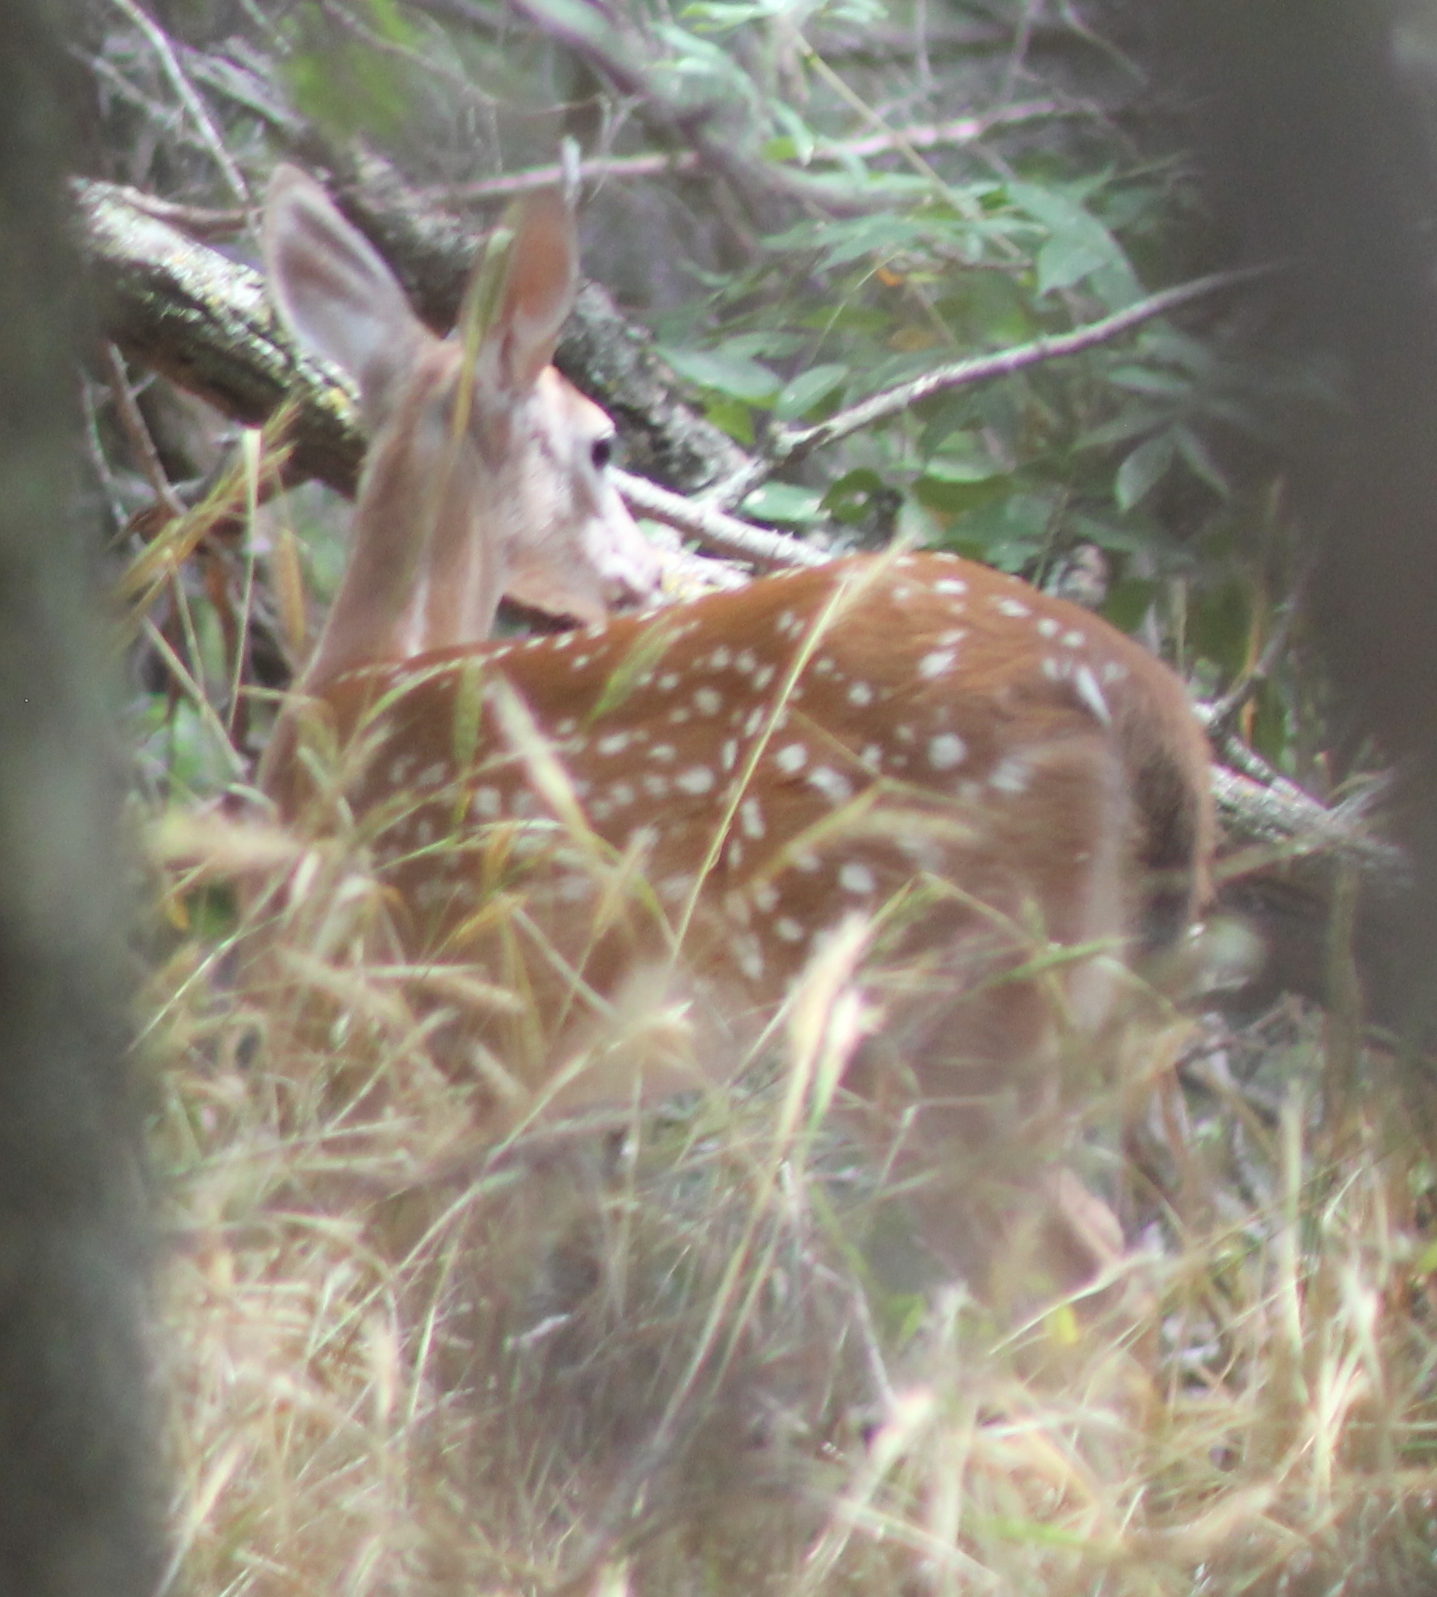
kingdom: Animalia
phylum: Chordata
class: Mammalia
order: Artiodactyla
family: Cervidae
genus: Odocoileus
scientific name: Odocoileus virginianus
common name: White-tailed deer
